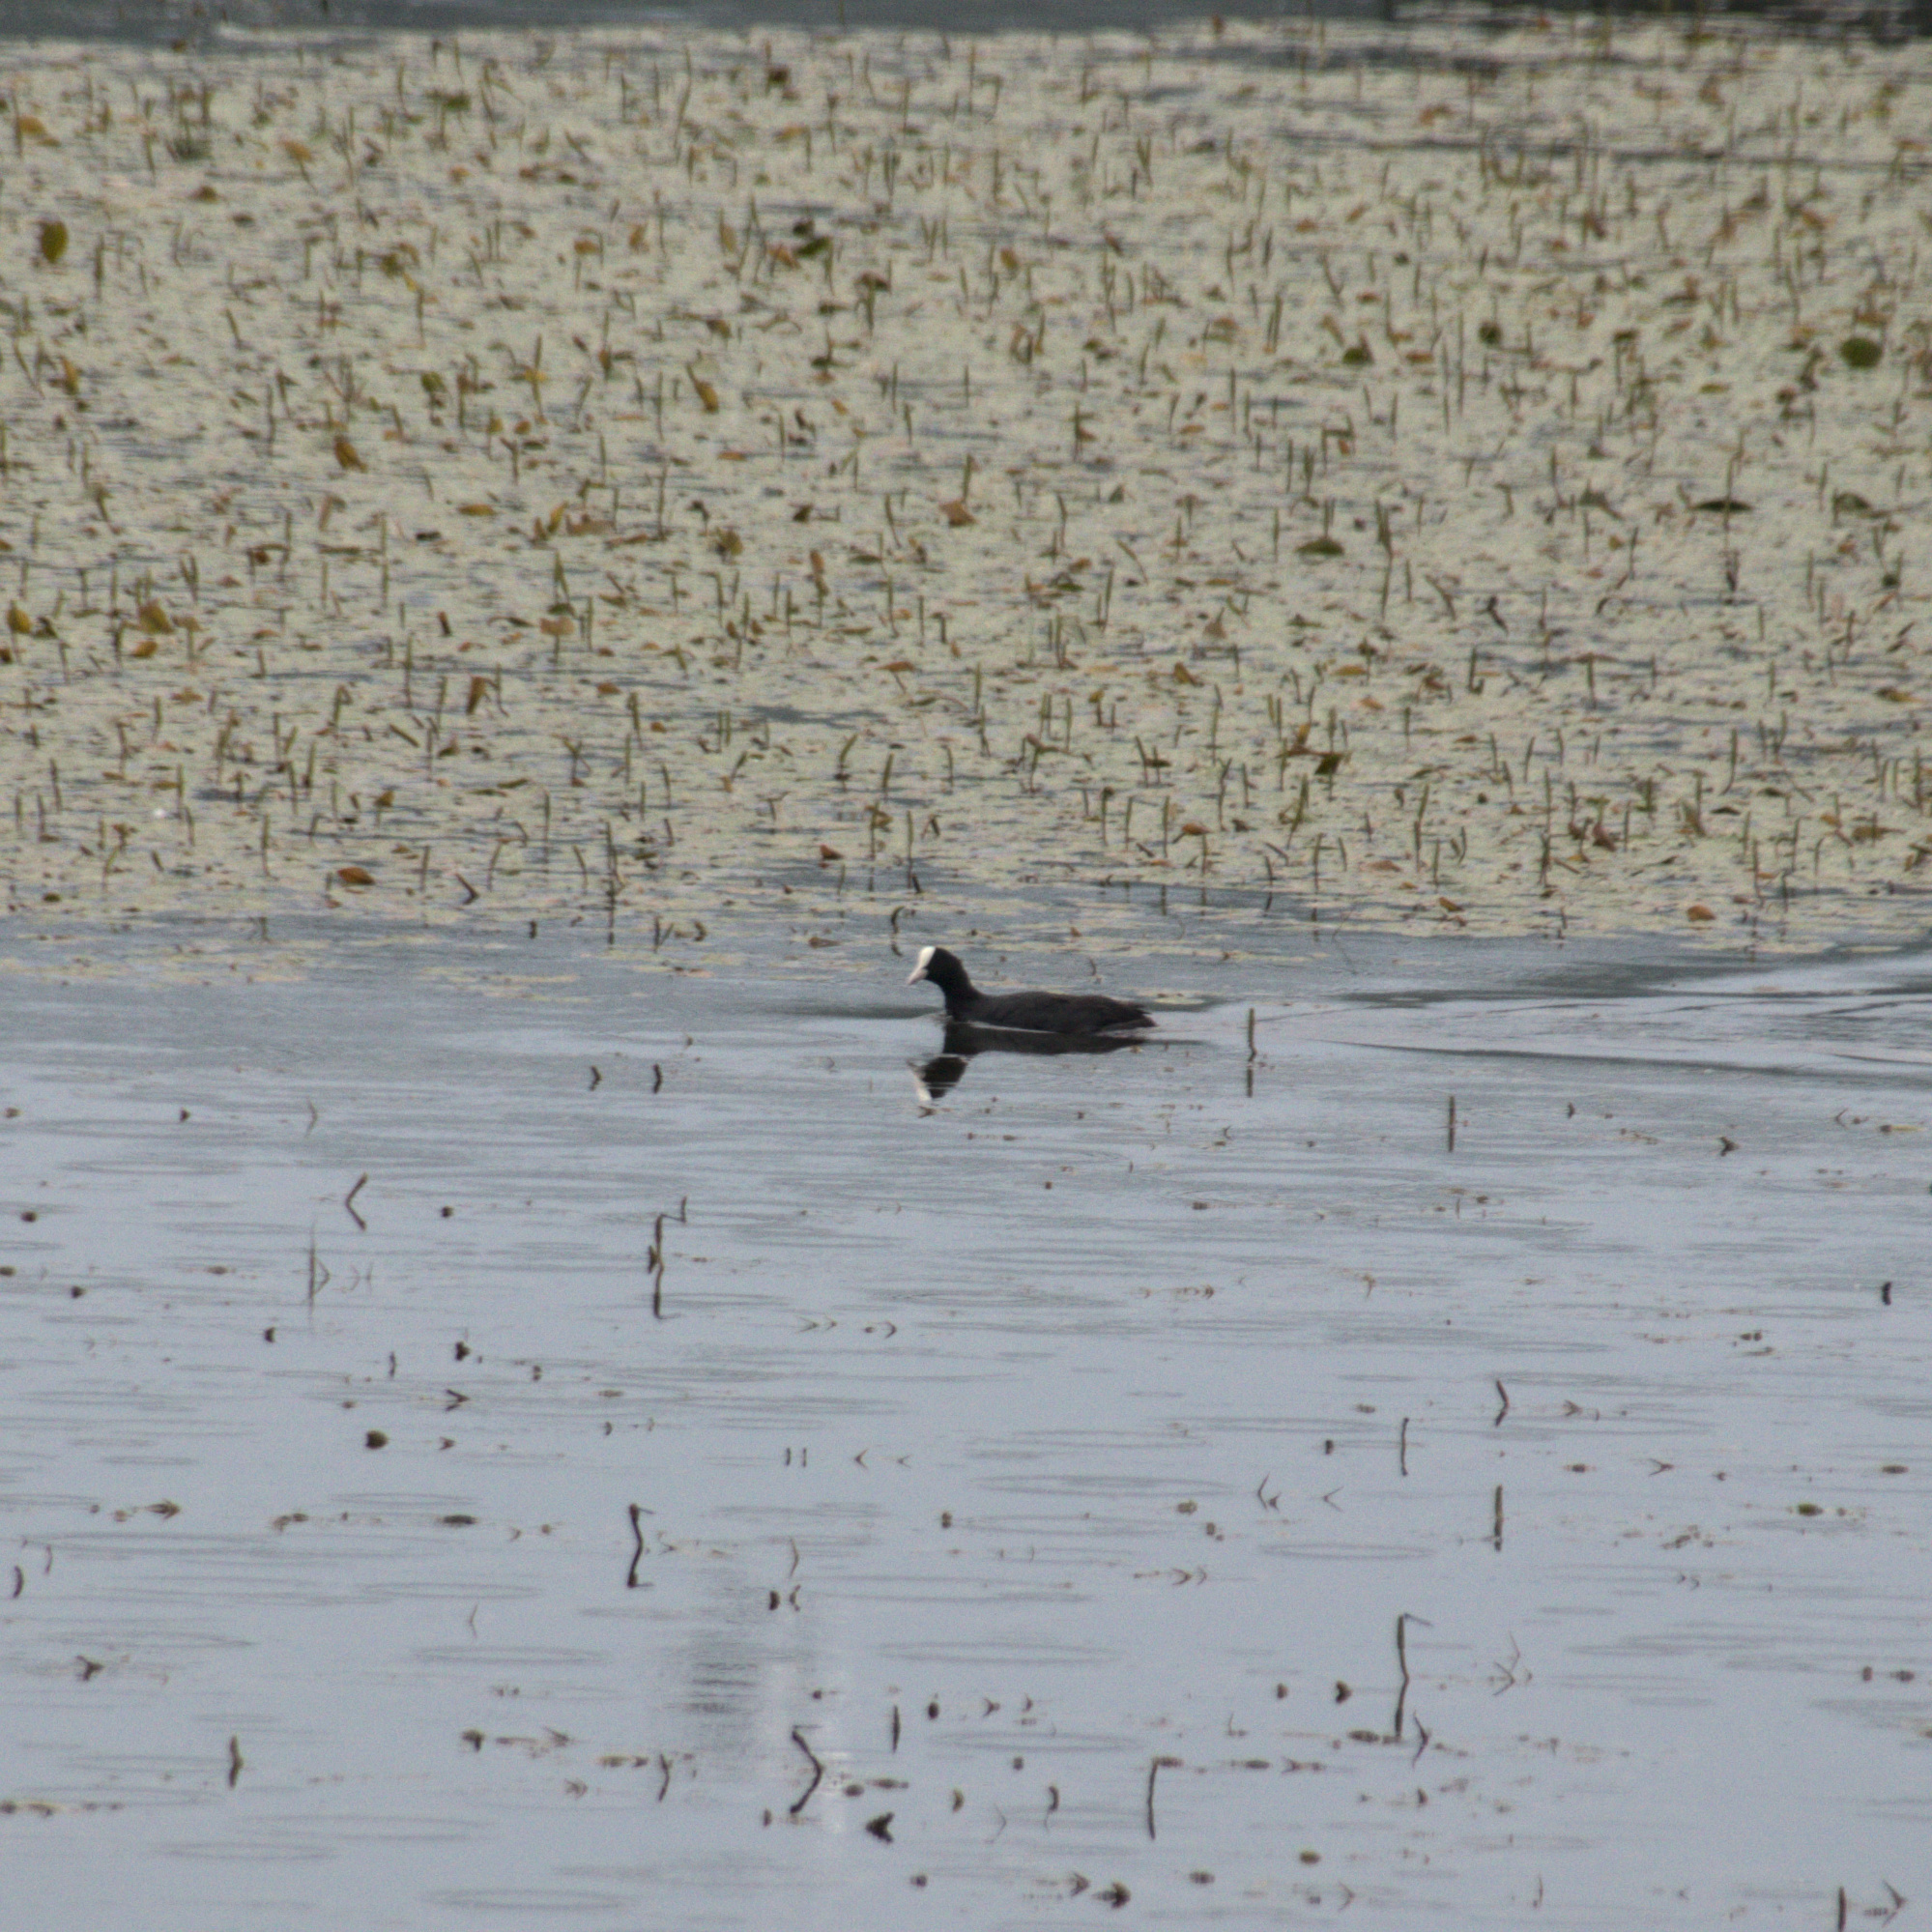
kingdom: Animalia
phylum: Chordata
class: Aves
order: Gruiformes
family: Rallidae
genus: Fulica
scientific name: Fulica atra
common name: Eurasian coot
